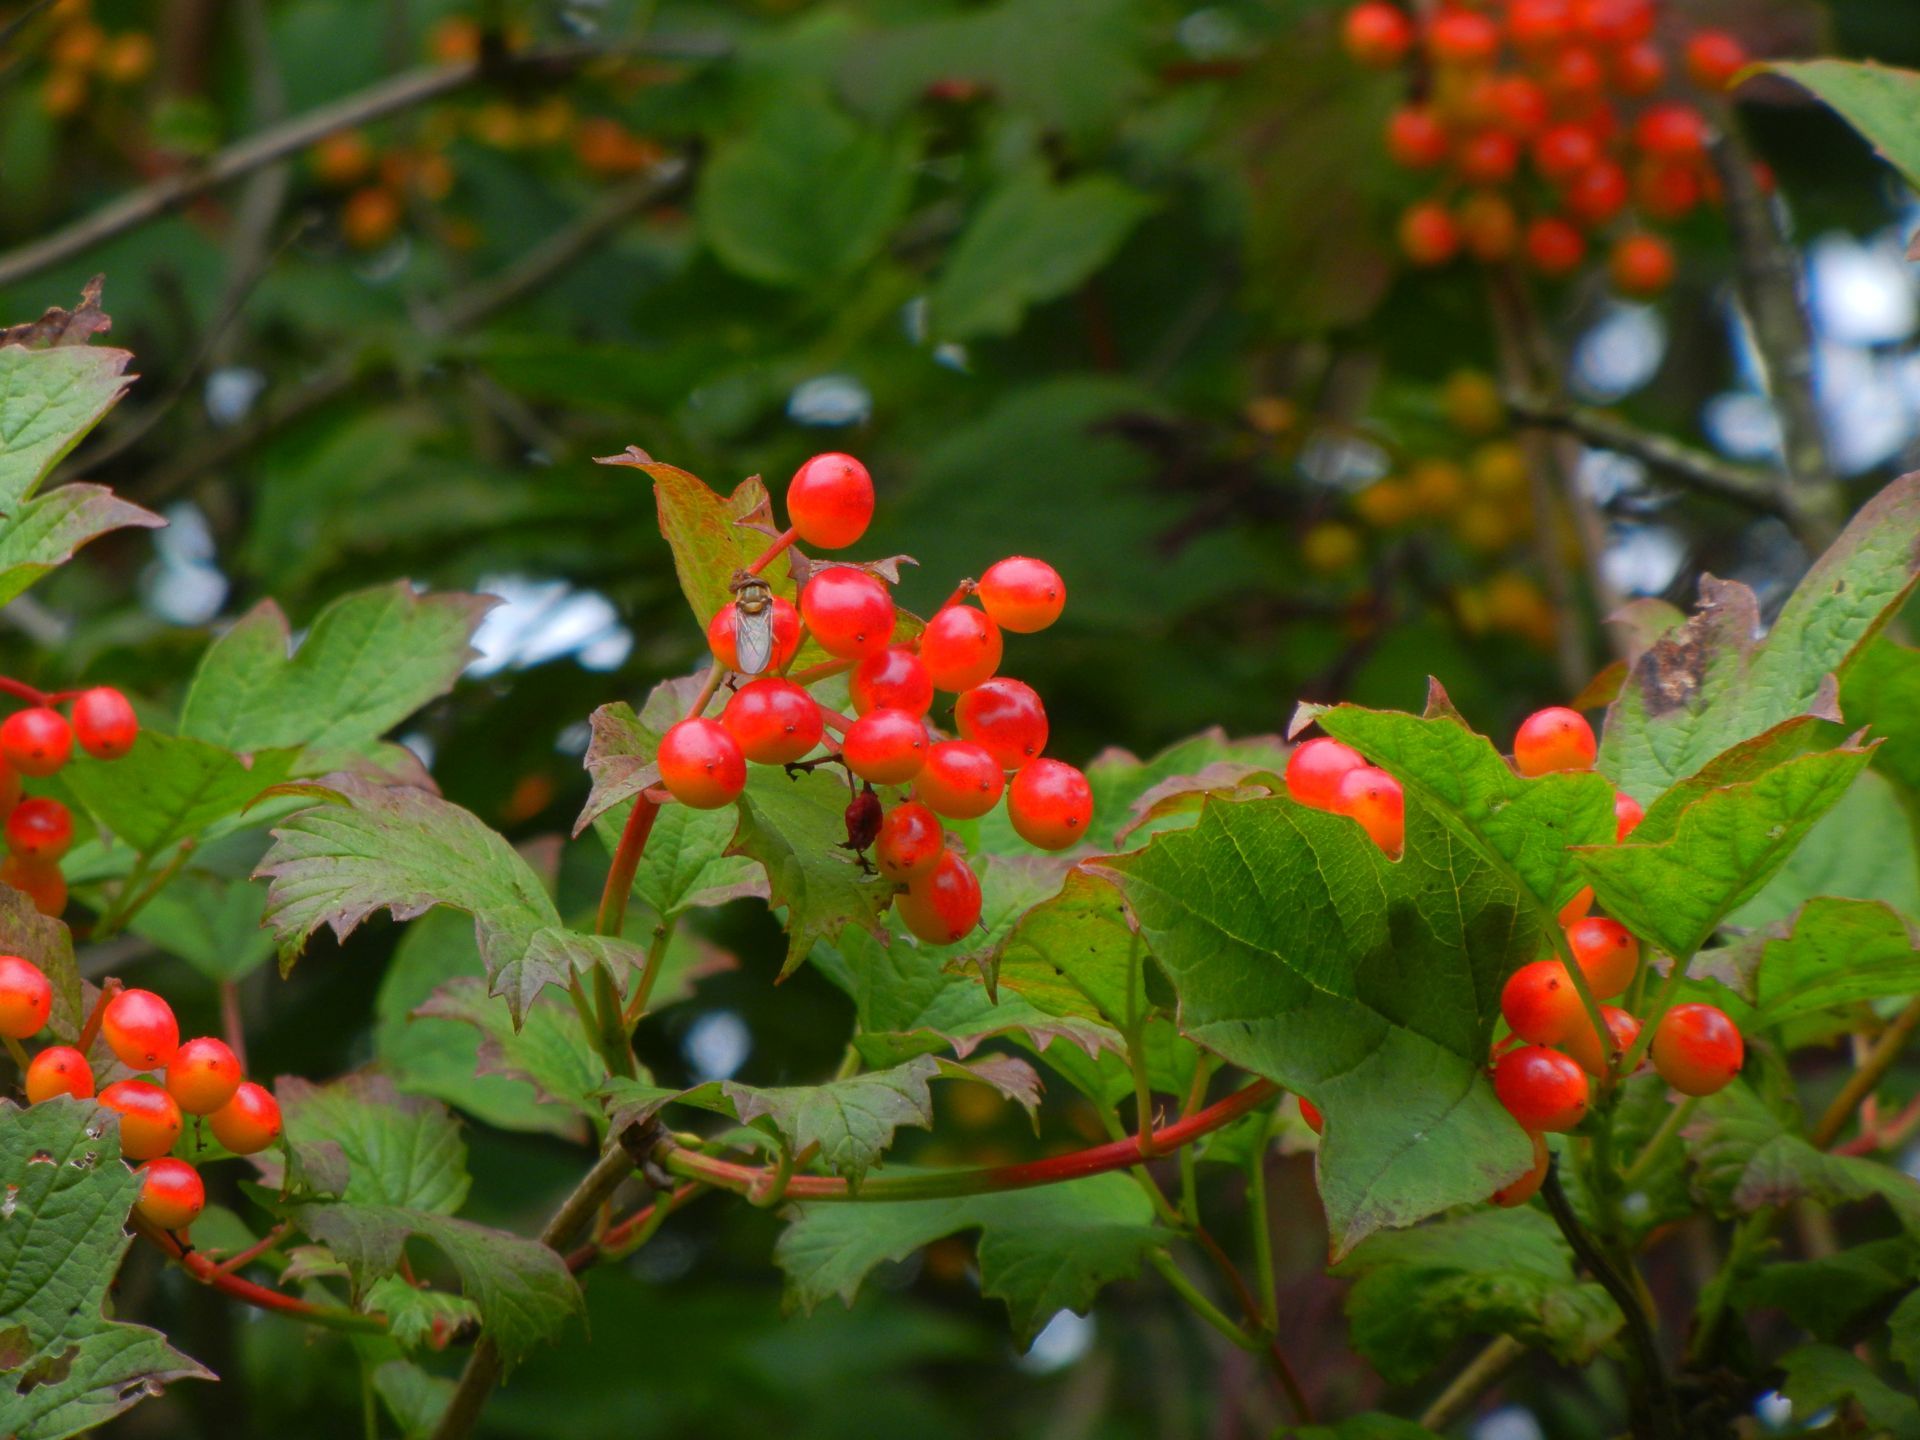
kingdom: Plantae
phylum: Tracheophyta
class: Magnoliopsida
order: Dipsacales
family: Viburnaceae
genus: Viburnum
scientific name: Viburnum opulus
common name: Guelder-rose
